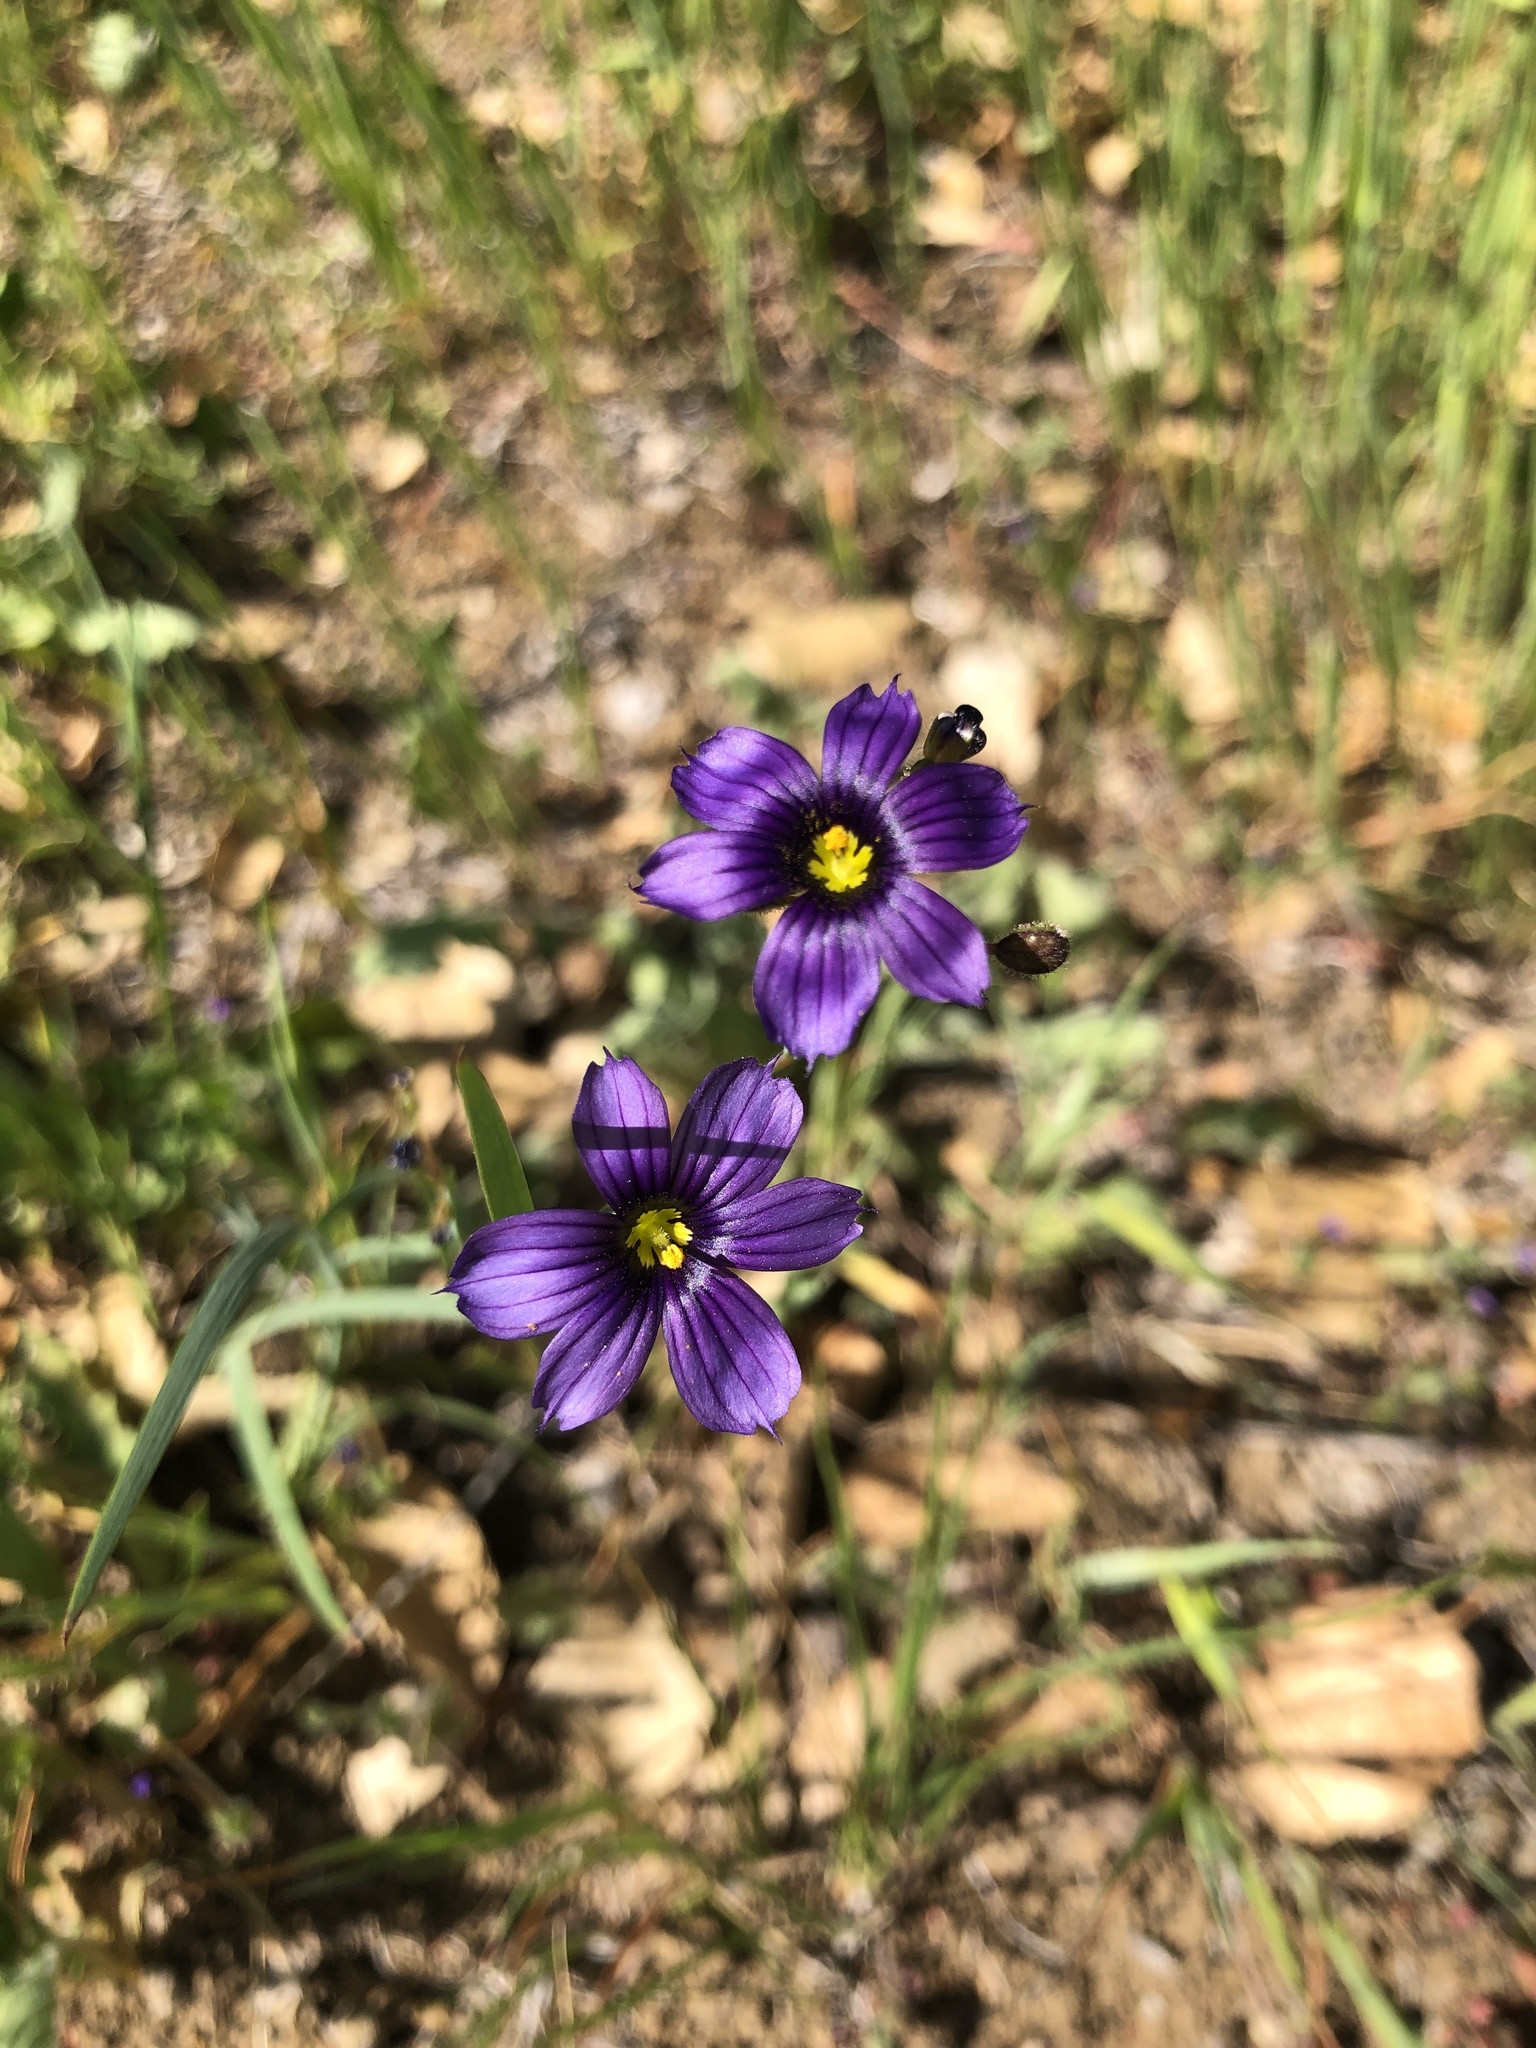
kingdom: Plantae
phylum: Tracheophyta
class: Liliopsida
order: Asparagales
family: Iridaceae
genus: Sisyrinchium
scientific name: Sisyrinchium bellum
